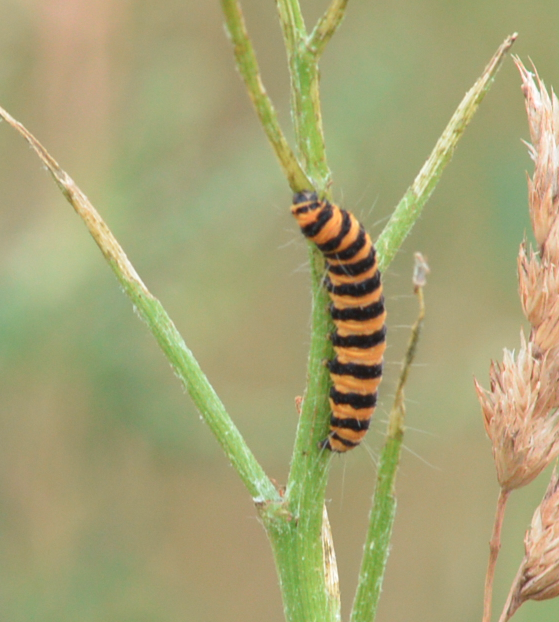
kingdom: Animalia
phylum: Arthropoda
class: Insecta
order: Lepidoptera
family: Erebidae
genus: Tyria
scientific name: Tyria jacobaeae
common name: Cinnabar
